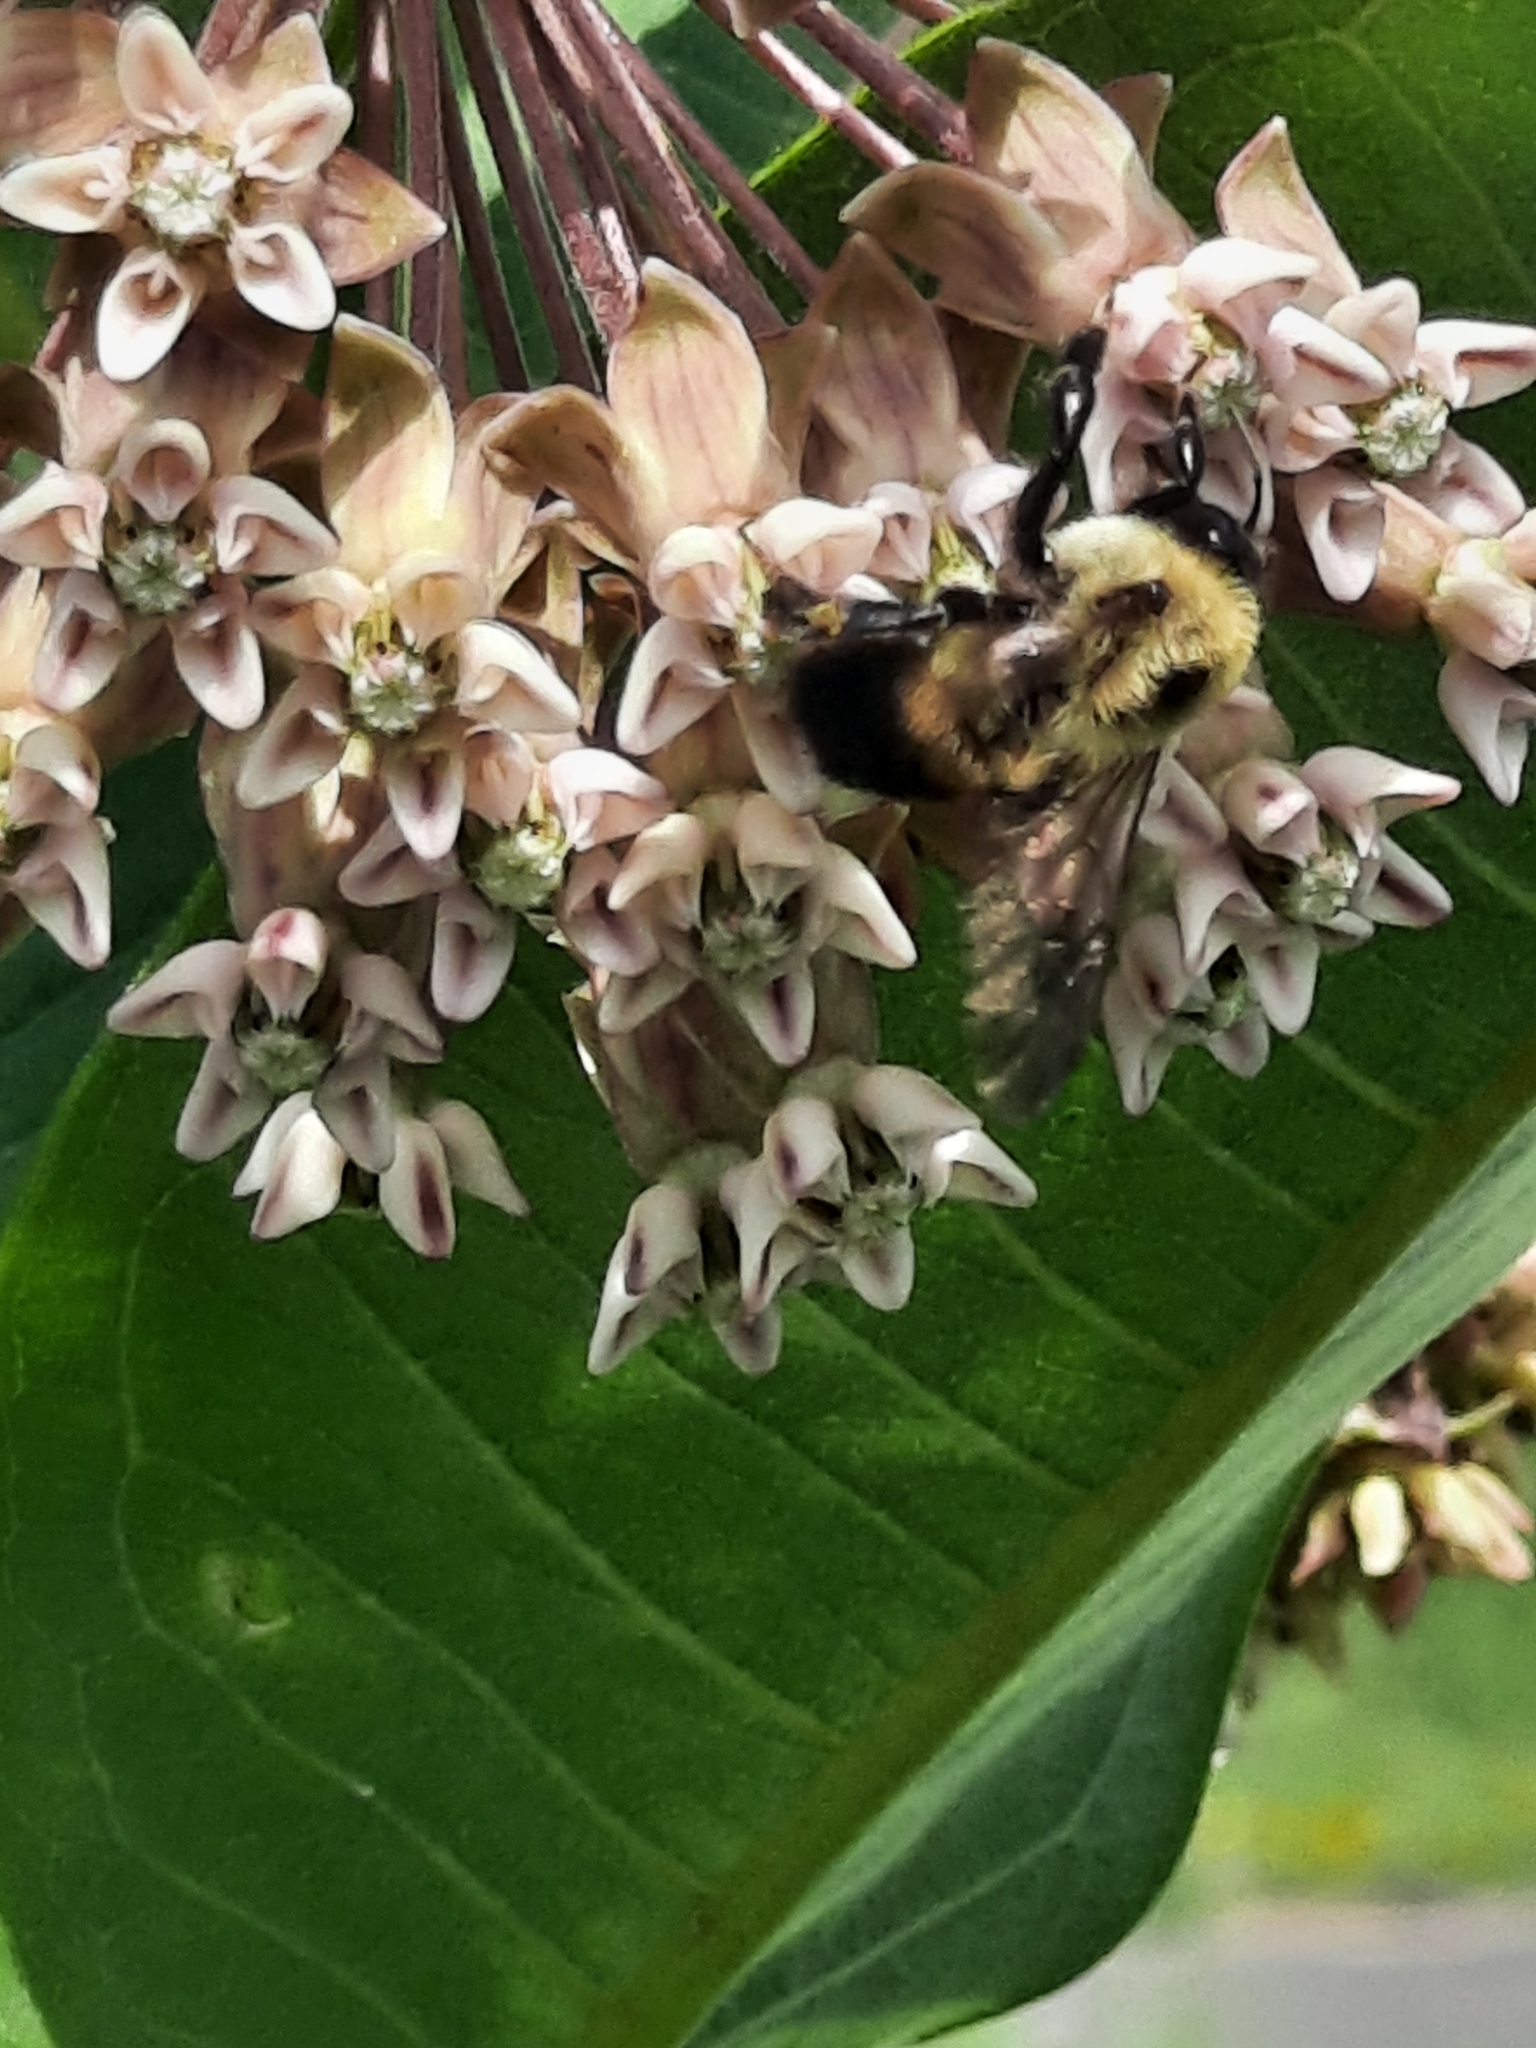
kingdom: Animalia
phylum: Arthropoda
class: Insecta
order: Hymenoptera
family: Apidae
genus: Bombus
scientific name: Bombus griseocollis
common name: Brown-belted bumble bee
